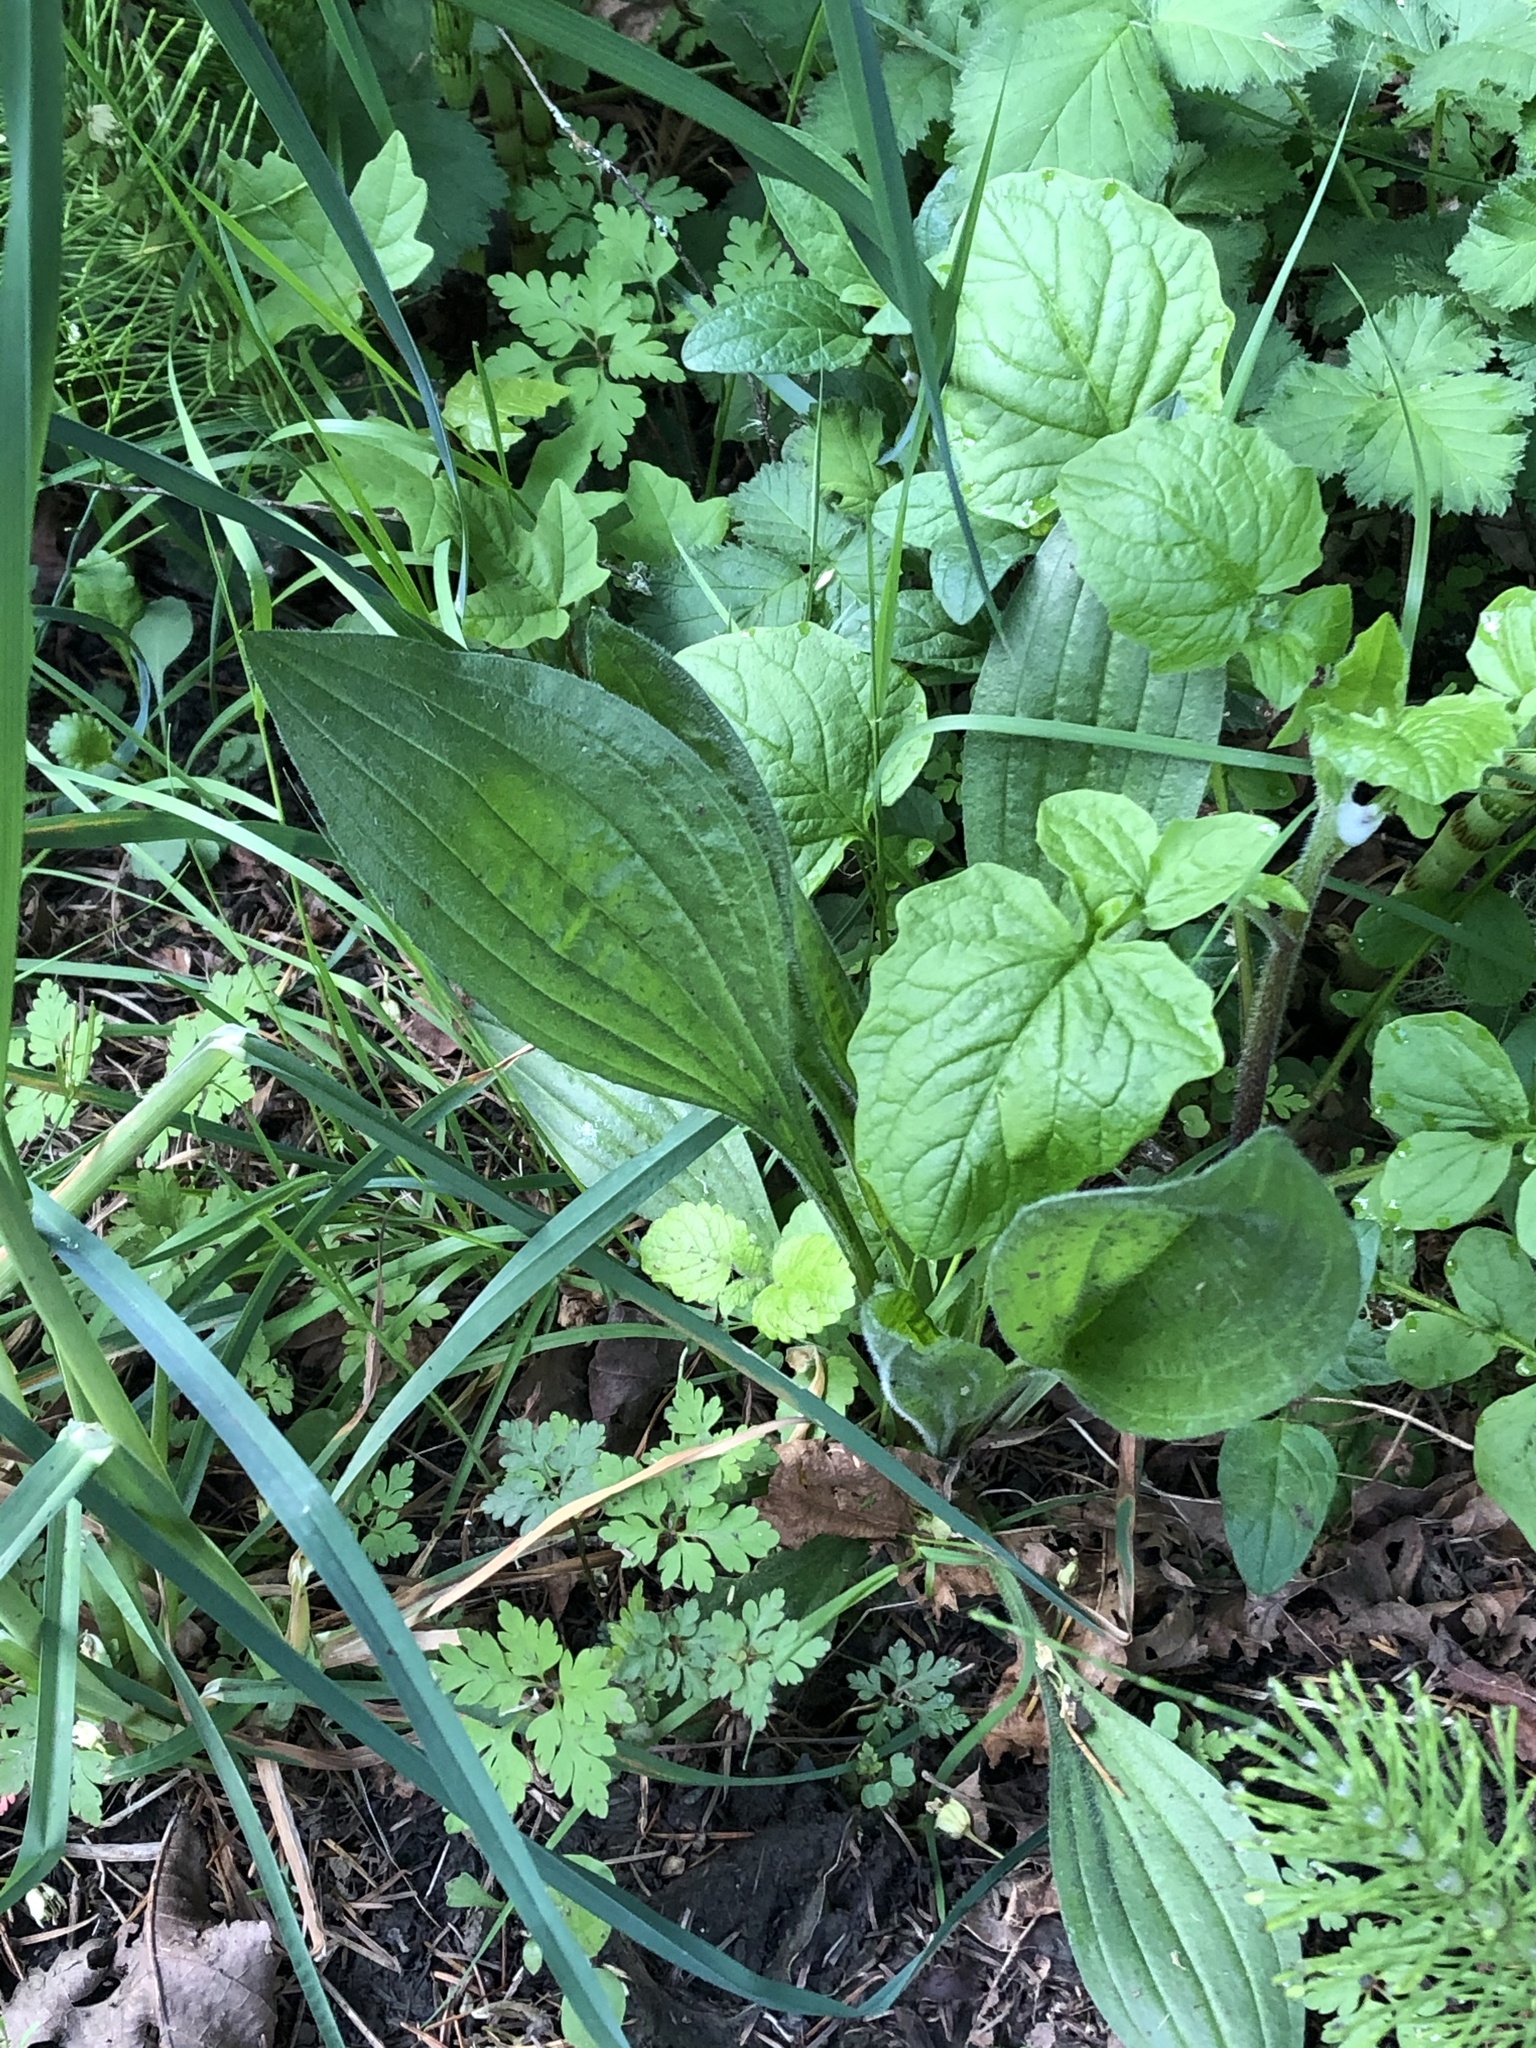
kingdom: Plantae
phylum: Tracheophyta
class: Magnoliopsida
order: Lamiales
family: Plantaginaceae
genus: Plantago
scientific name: Plantago major
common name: Common plantain
